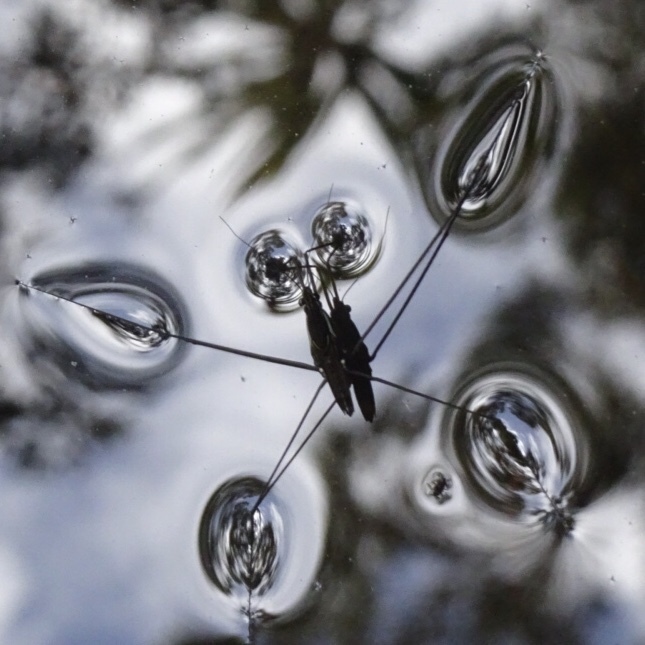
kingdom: Animalia
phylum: Arthropoda
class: Insecta
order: Hemiptera
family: Gerridae
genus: Limnometra
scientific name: Limnometra
